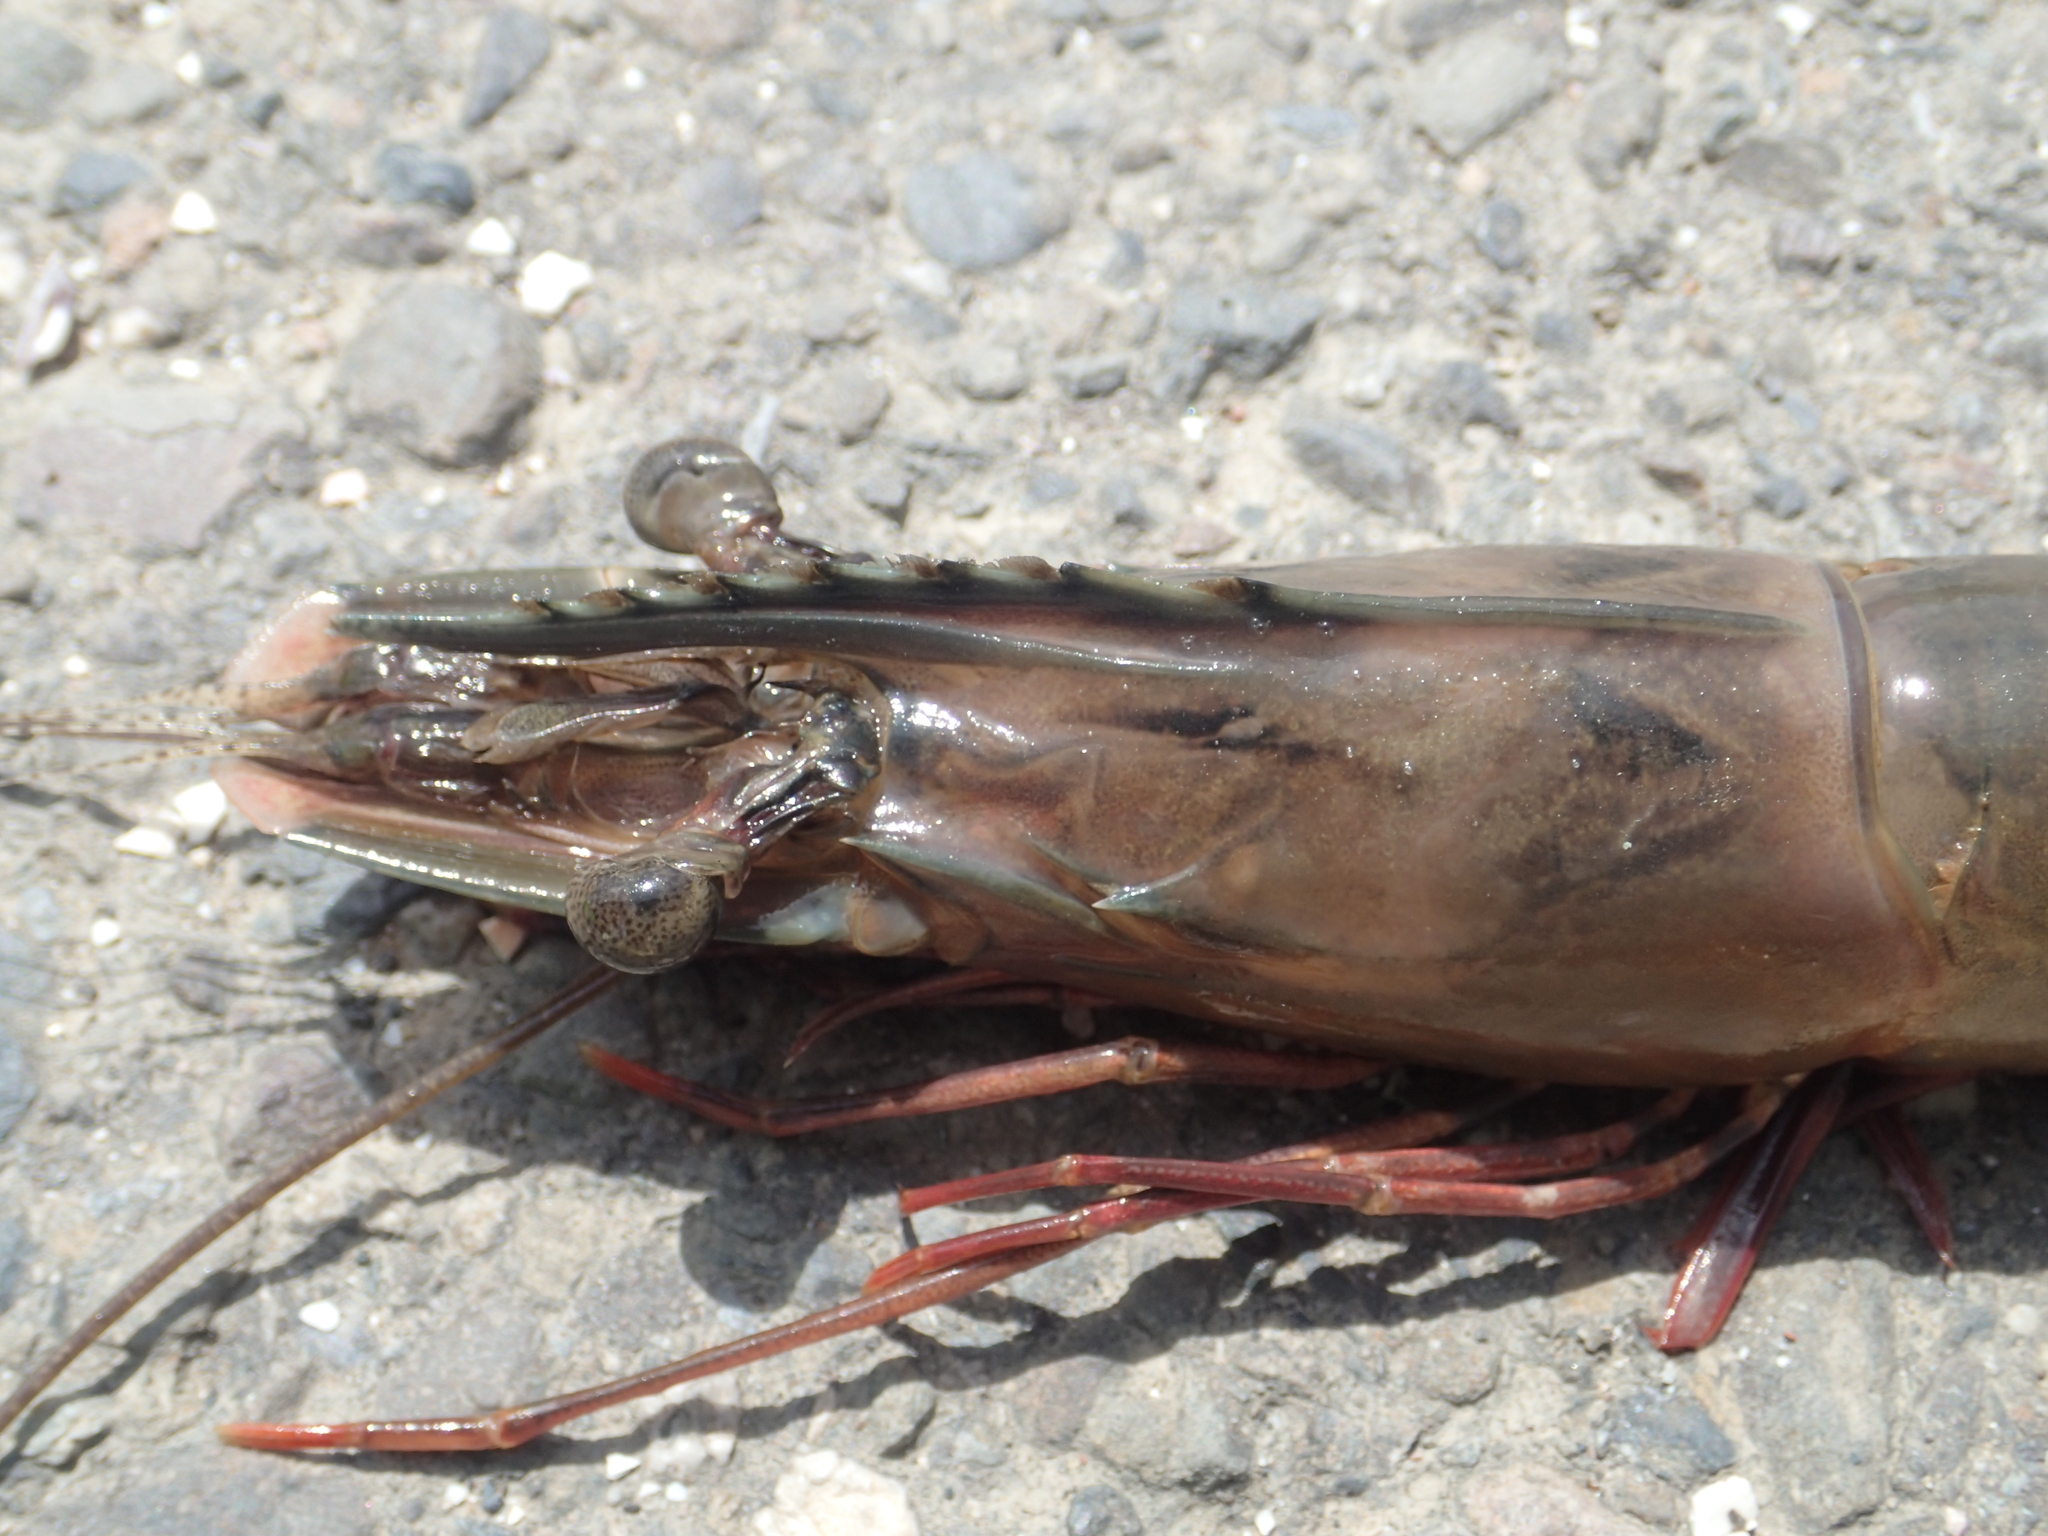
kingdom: Animalia
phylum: Arthropoda
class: Malacostraca
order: Decapoda
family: Penaeidae
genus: Penaeus
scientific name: Penaeus monodon
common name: Giant tiger prawn
